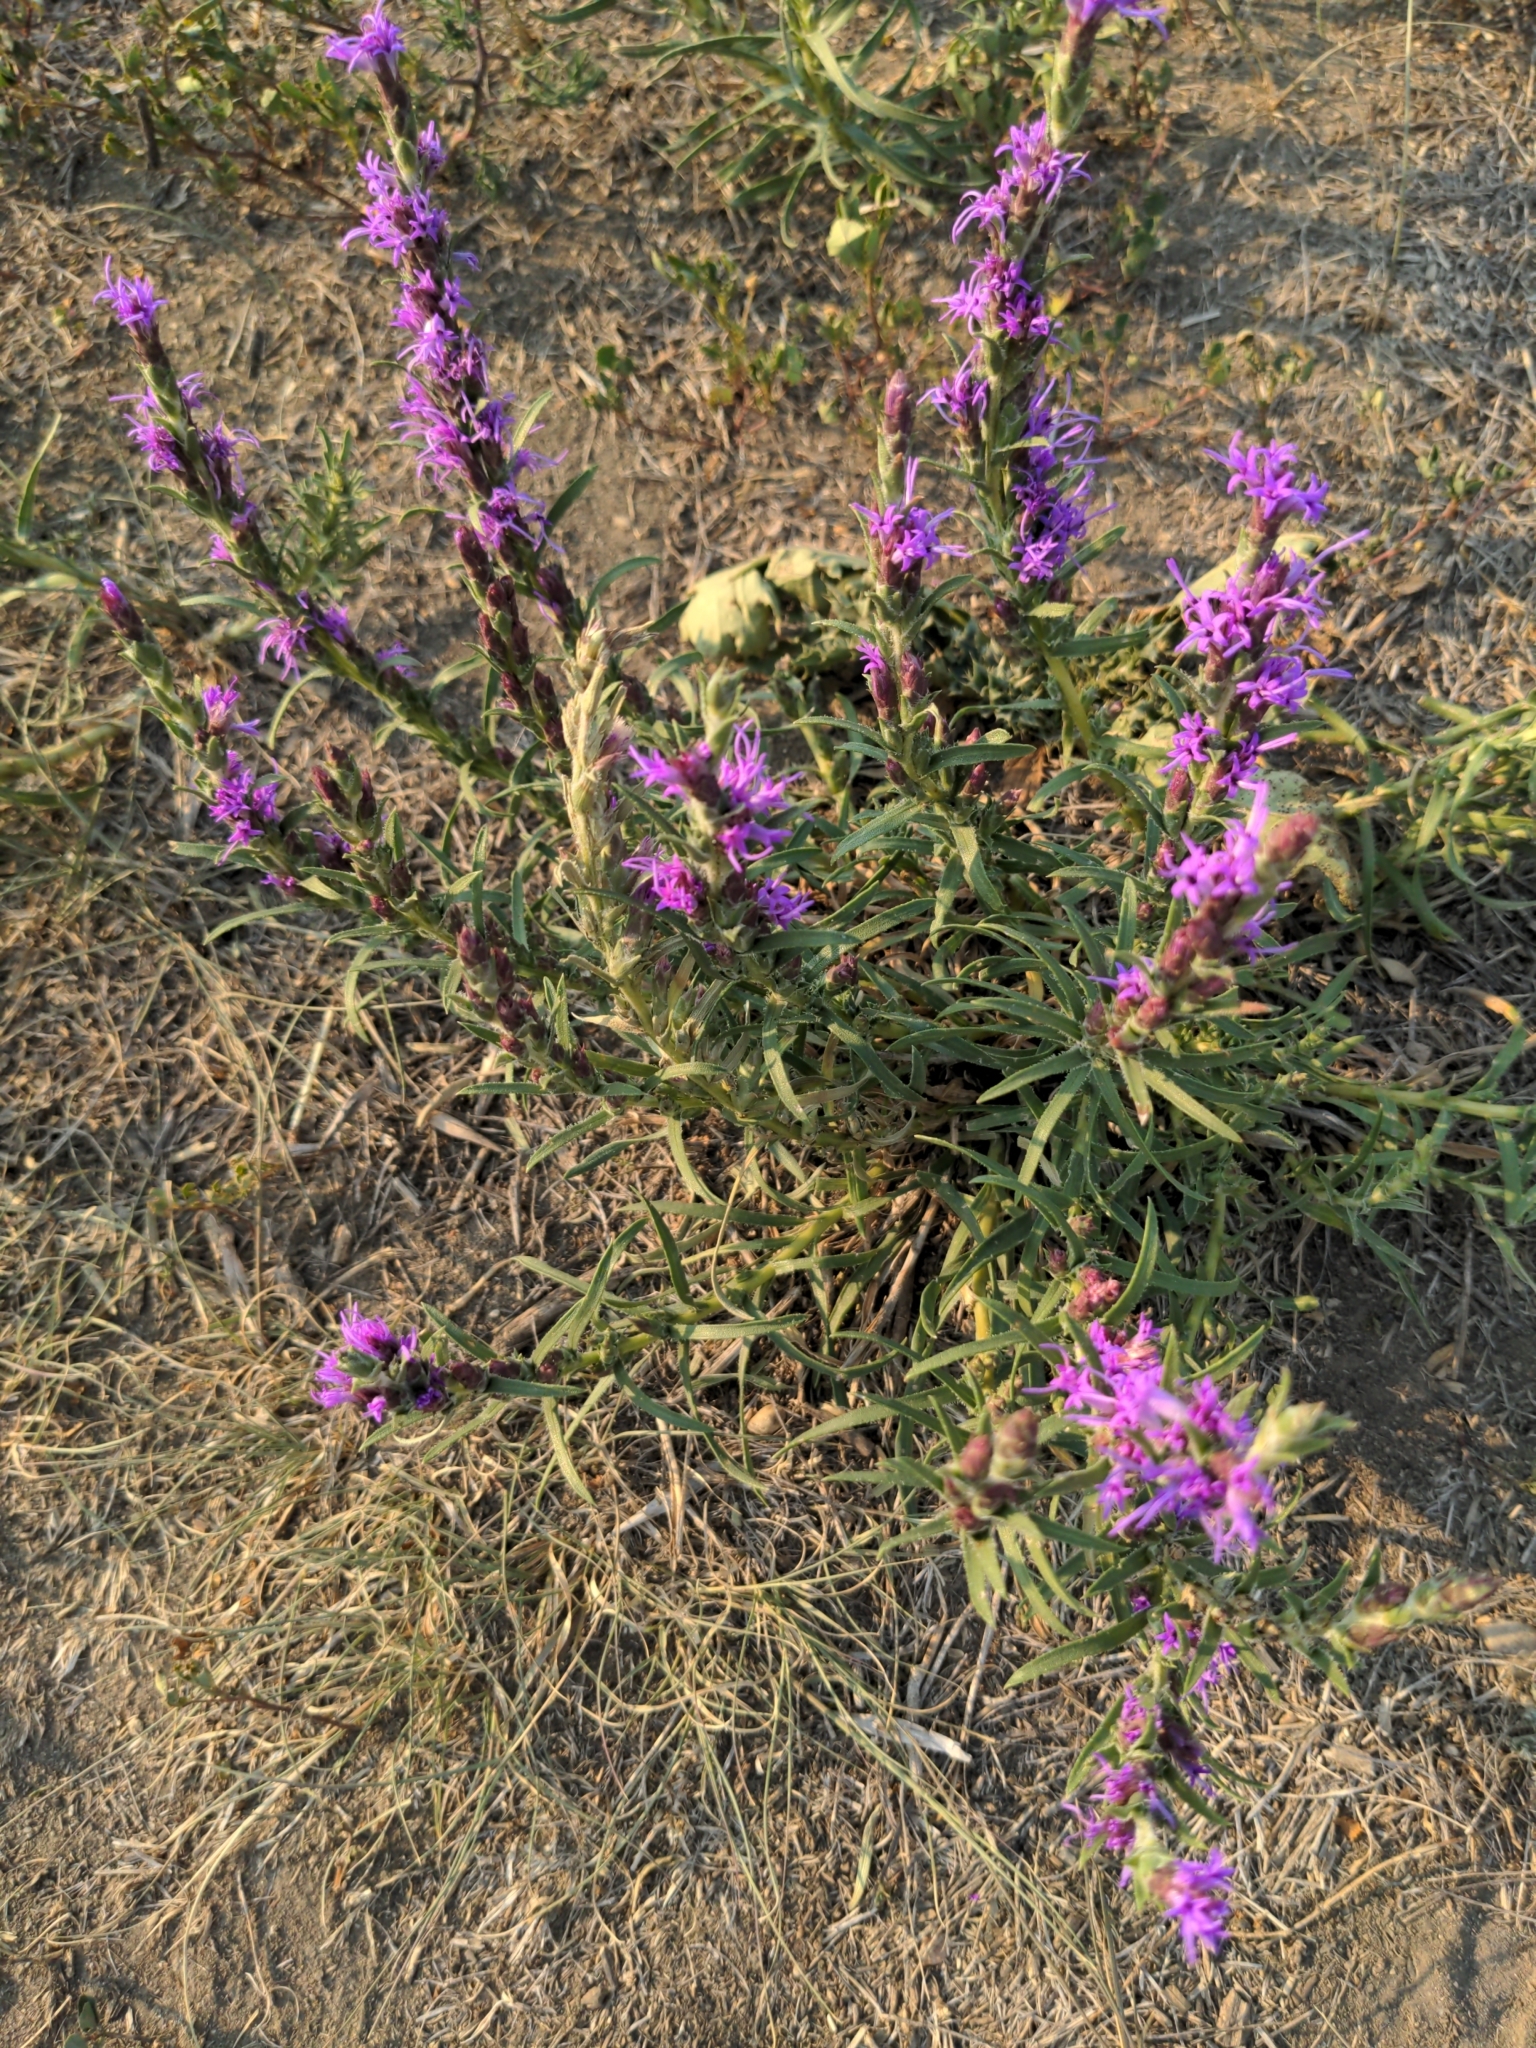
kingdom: Plantae
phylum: Tracheophyta
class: Magnoliopsida
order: Asterales
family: Asteraceae
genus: Liatris
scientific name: Liatris punctata
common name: Dotted gayfeather
